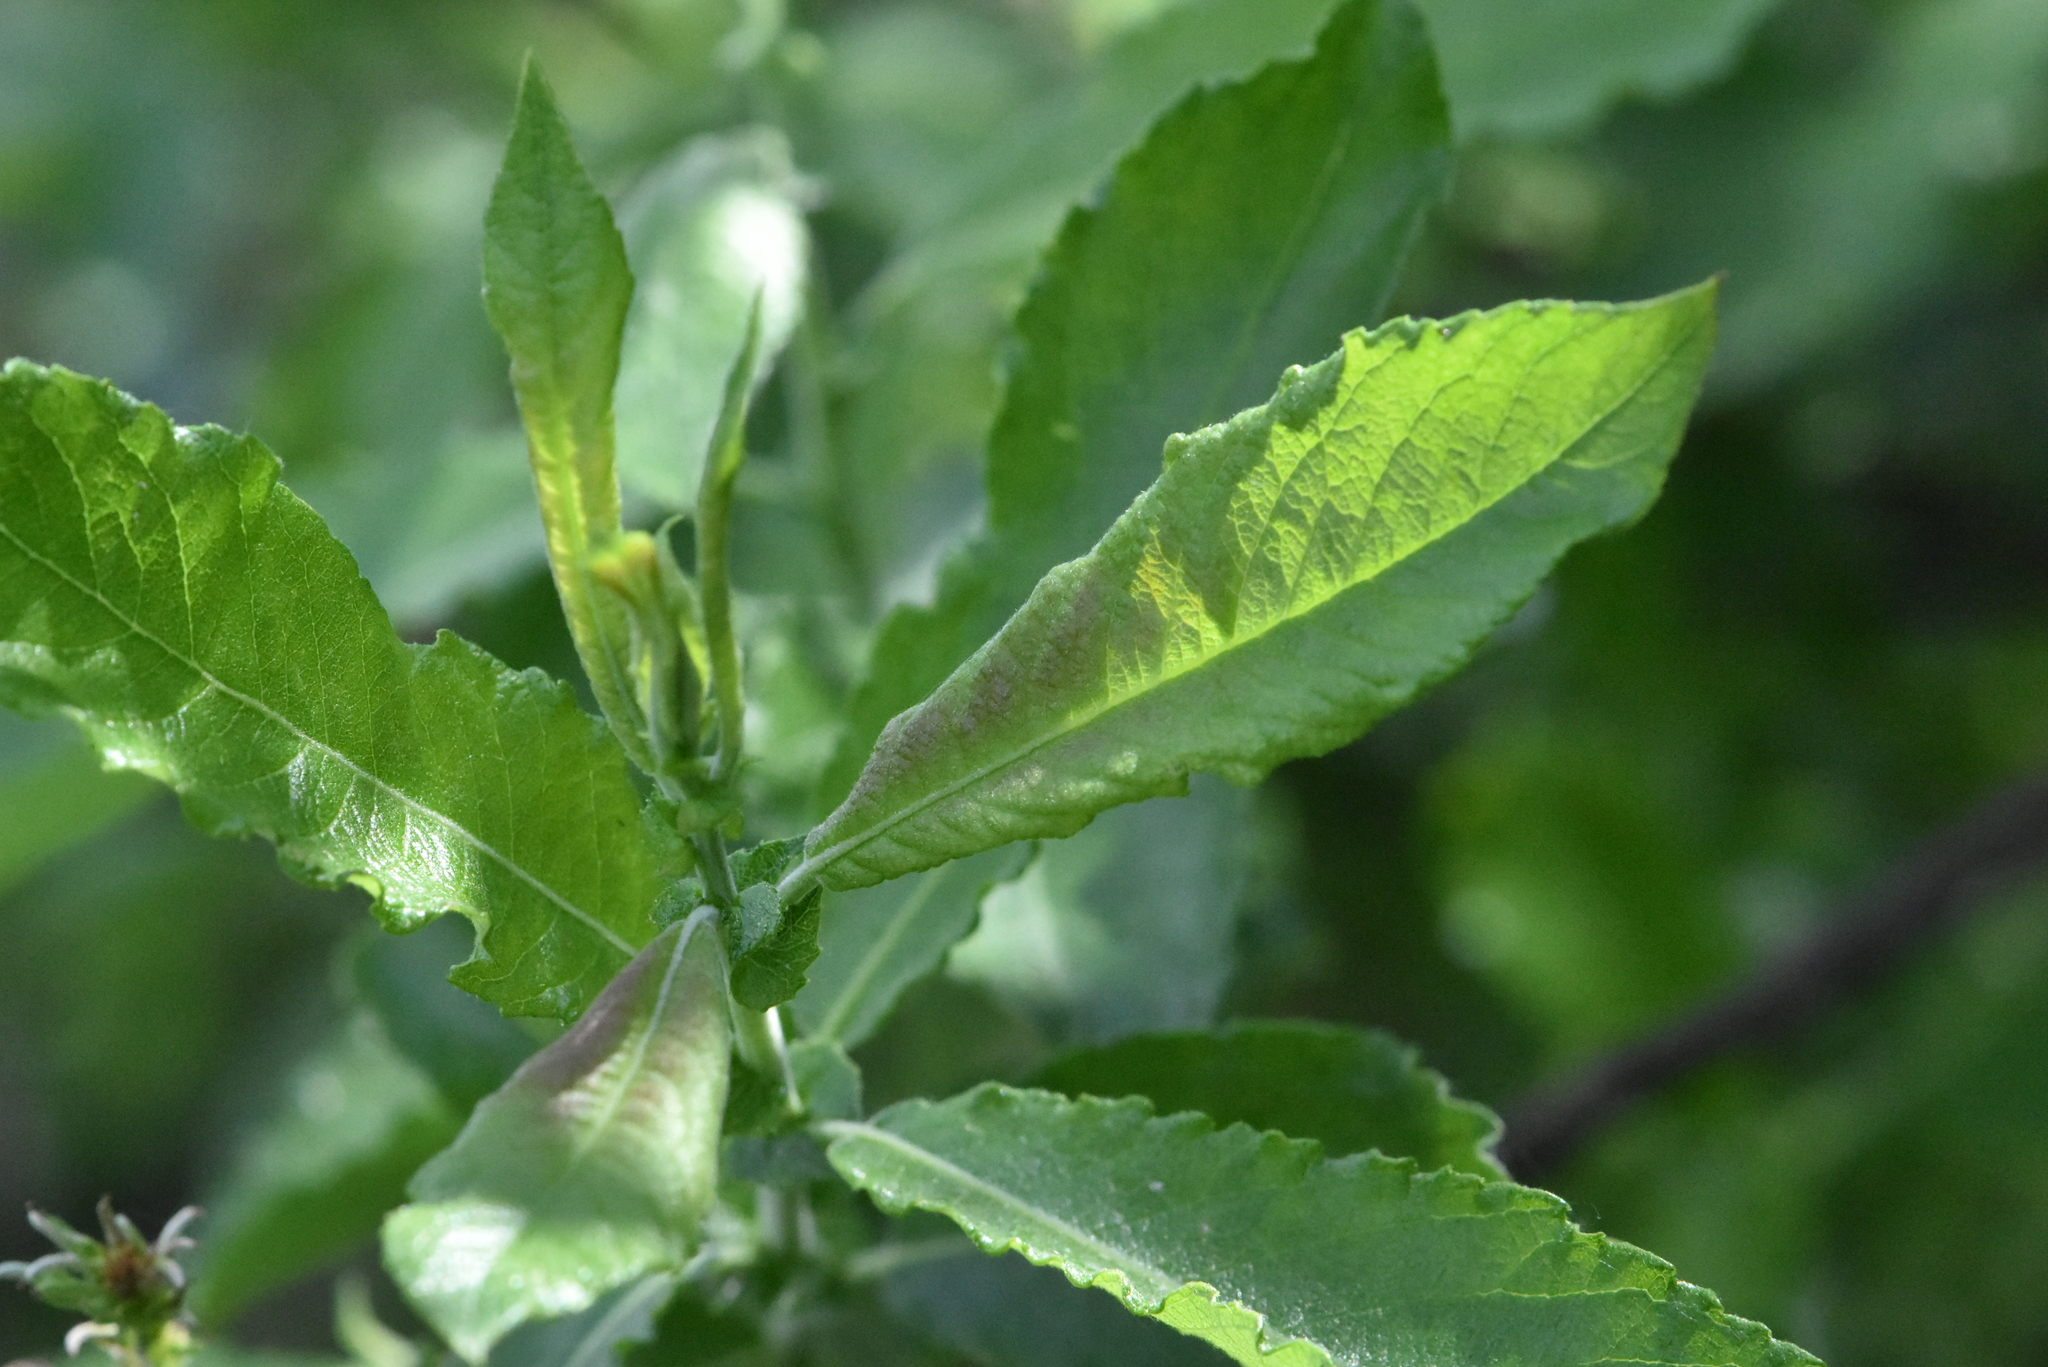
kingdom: Plantae
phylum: Tracheophyta
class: Magnoliopsida
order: Malpighiales
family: Salicaceae
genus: Salix
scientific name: Salix cinerea
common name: Common sallow
